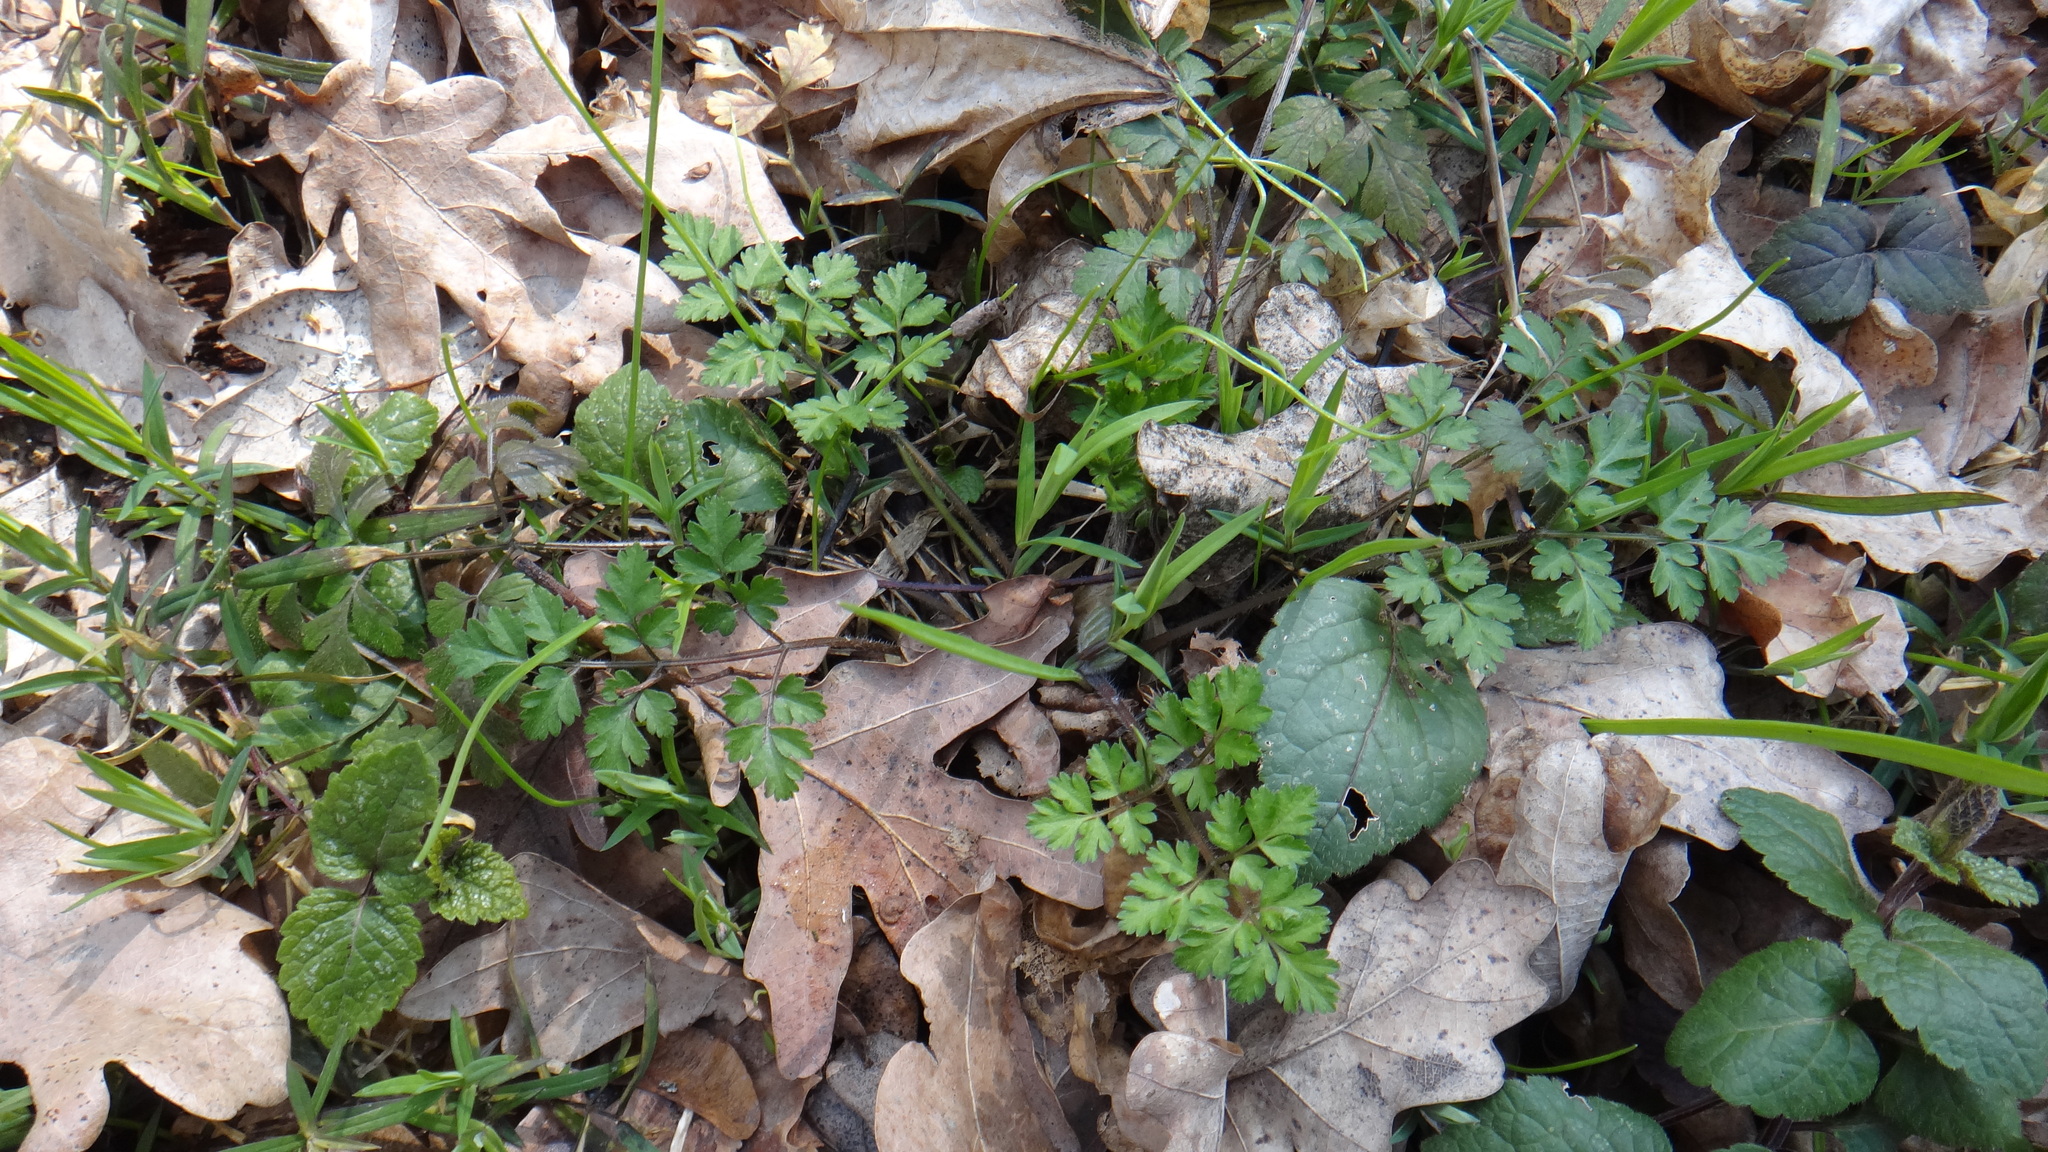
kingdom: Plantae
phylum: Tracheophyta
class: Magnoliopsida
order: Apiales
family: Apiaceae
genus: Chaerophyllum
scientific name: Chaerophyllum temulum
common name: Rough chervil
